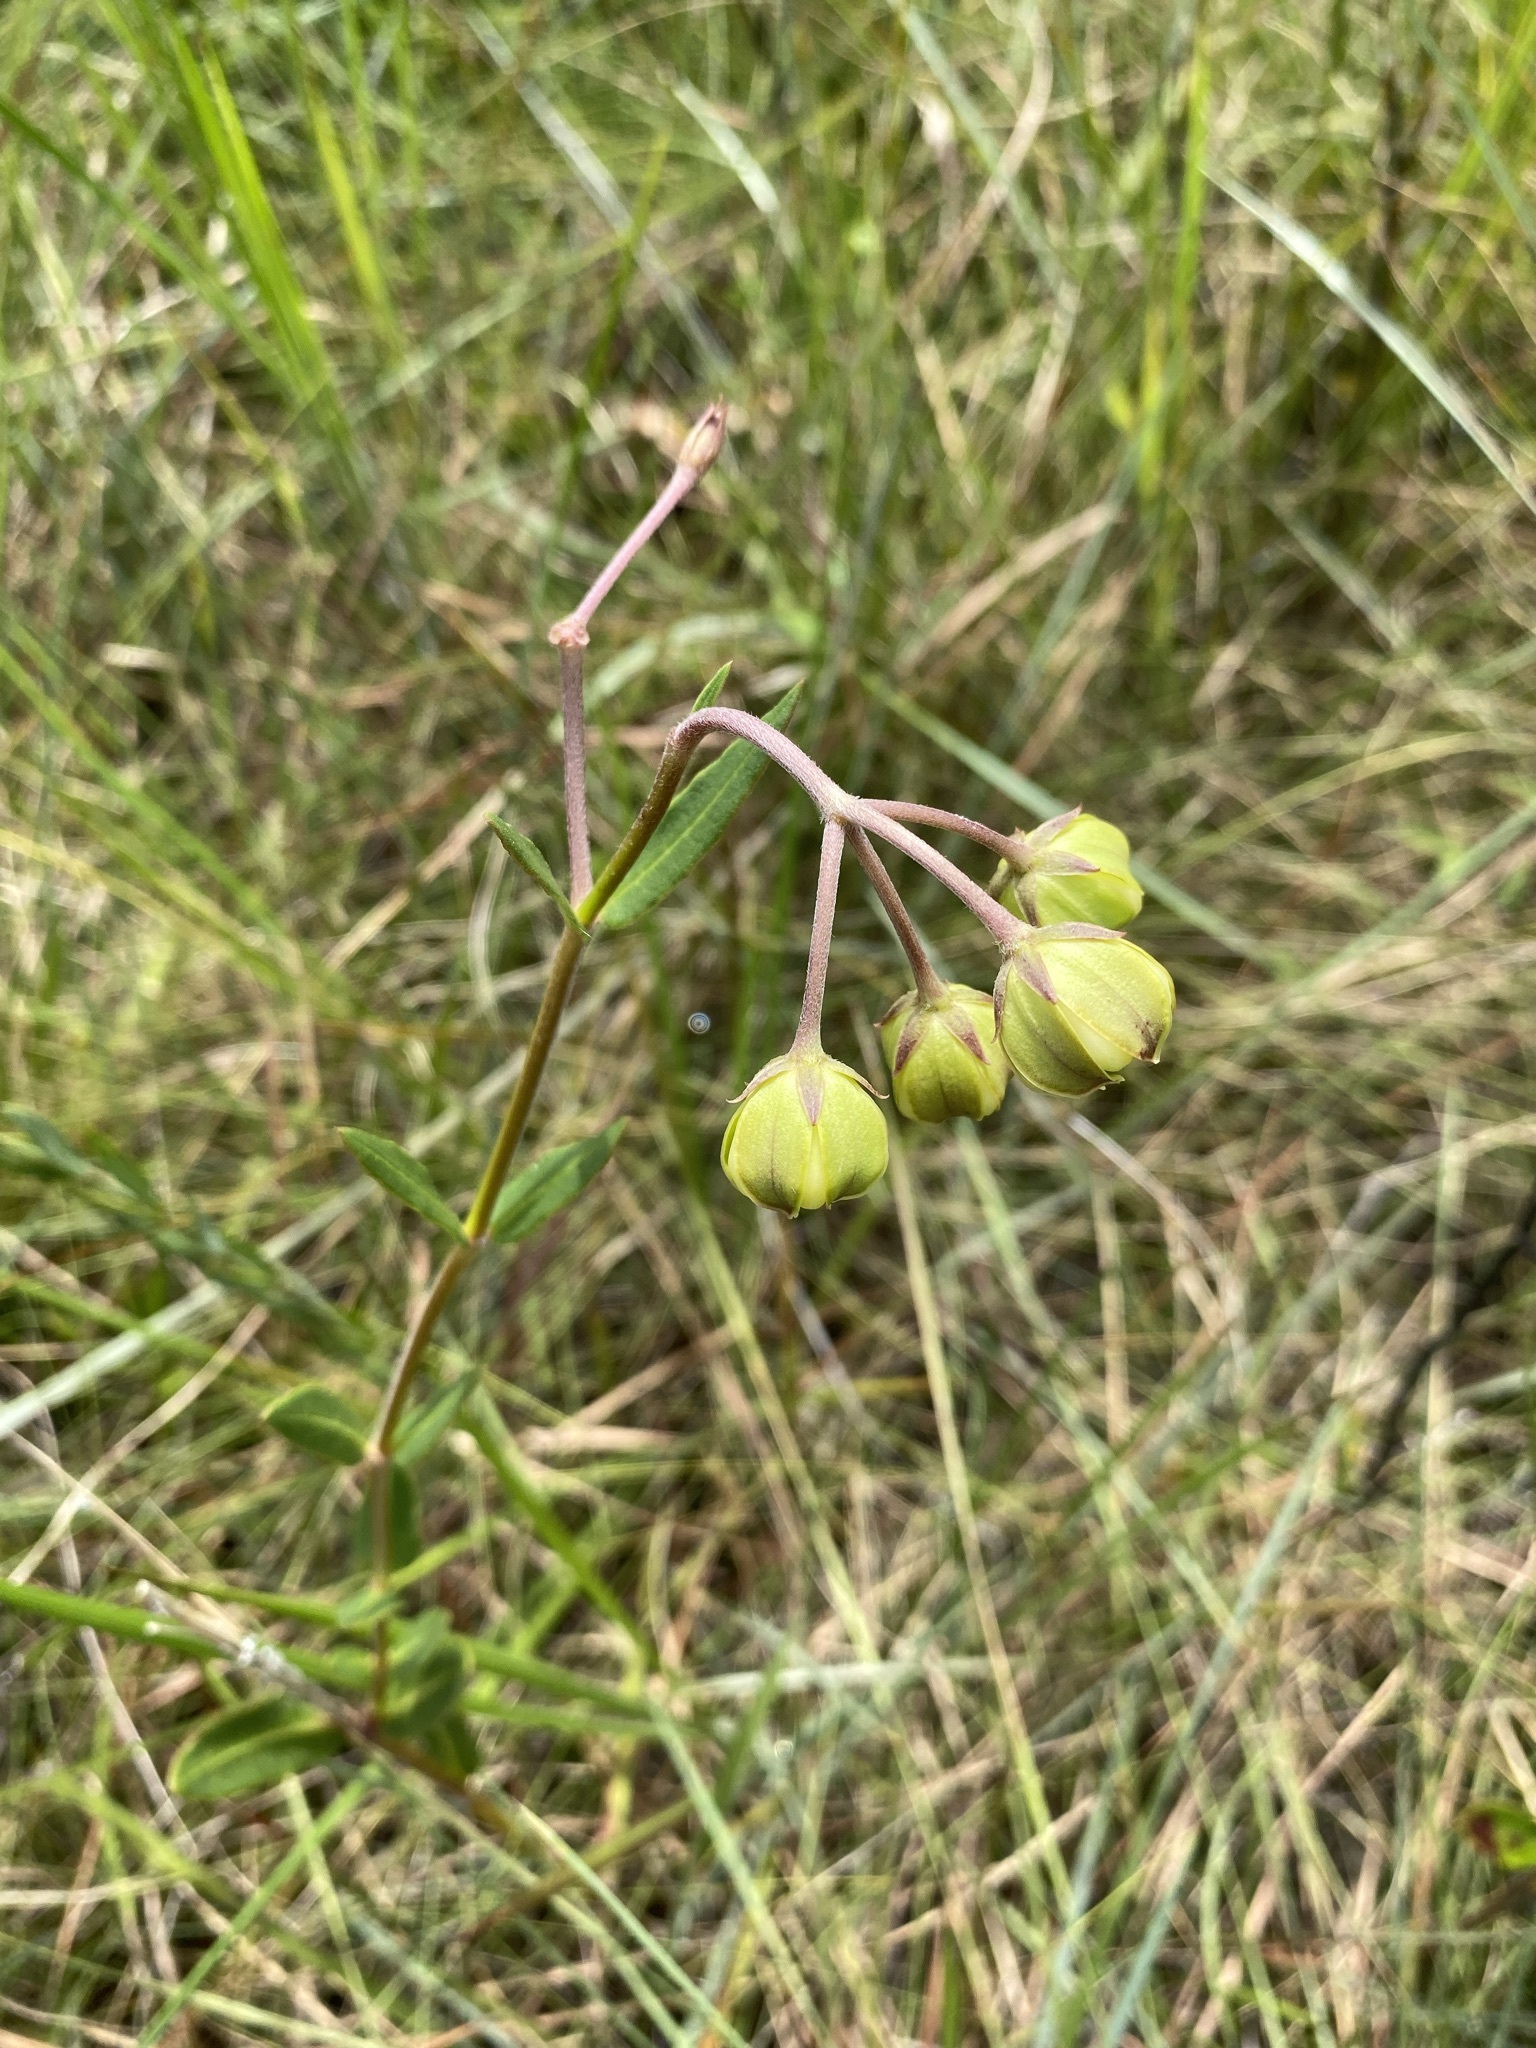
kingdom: Plantae
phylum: Tracheophyta
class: Magnoliopsida
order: Gentianales
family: Apocynaceae
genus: Asclepias
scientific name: Asclepias connivens
